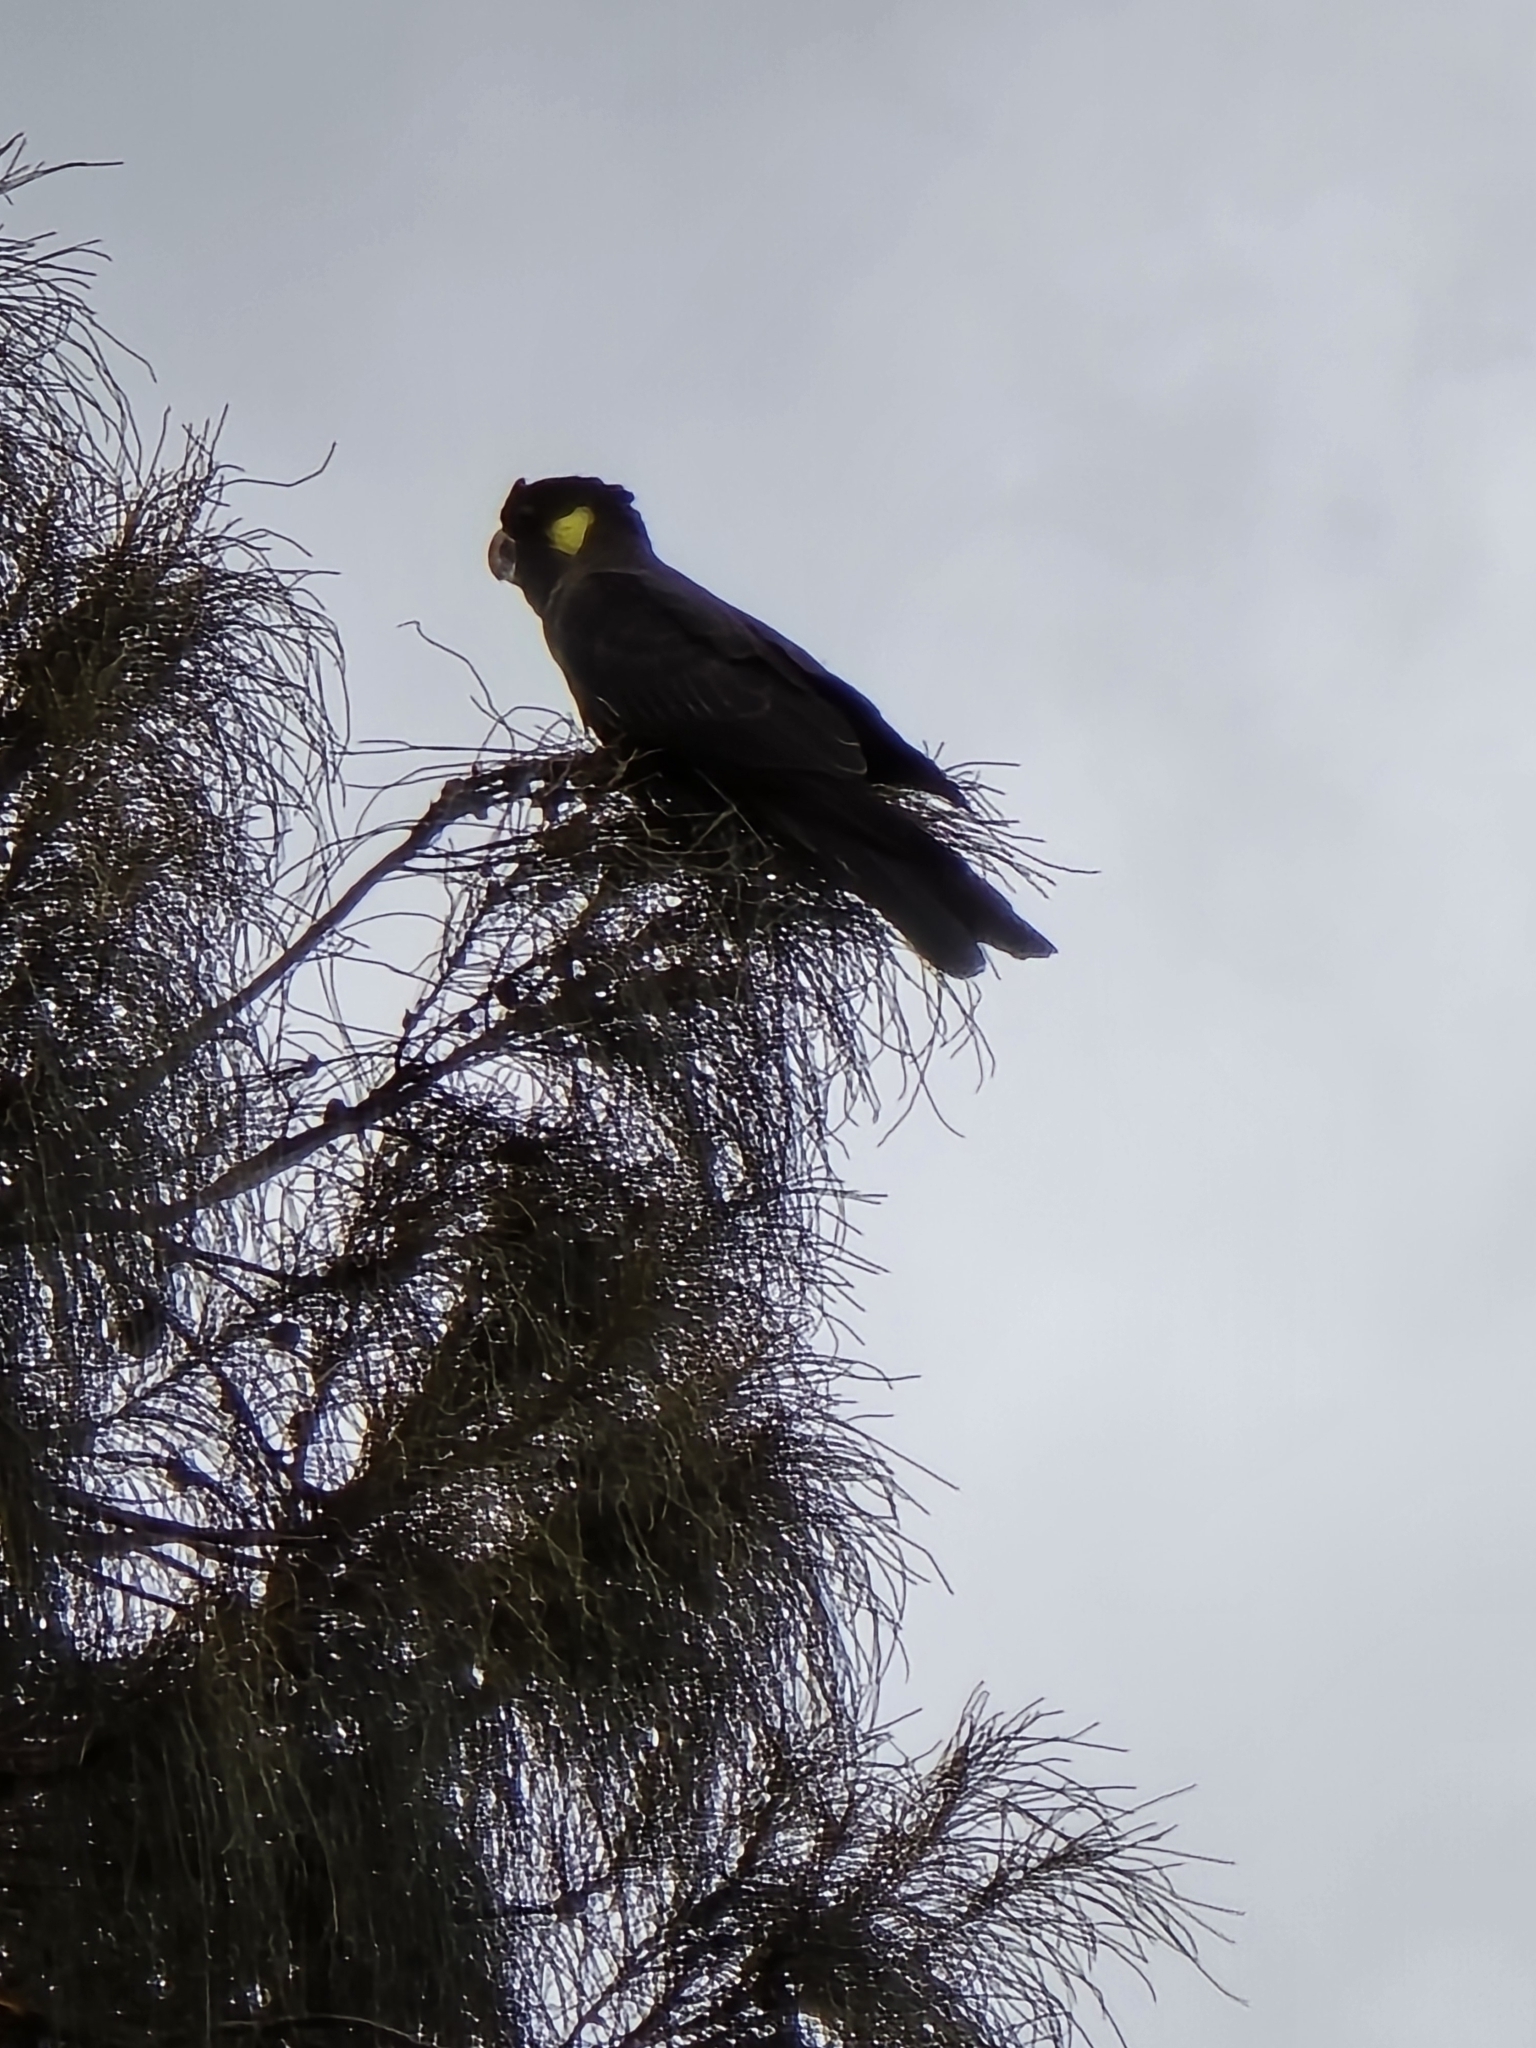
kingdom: Animalia
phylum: Chordata
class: Aves
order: Psittaciformes
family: Cacatuidae
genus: Zanda
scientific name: Zanda funerea
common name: Yellow-tailed black-cockatoo
